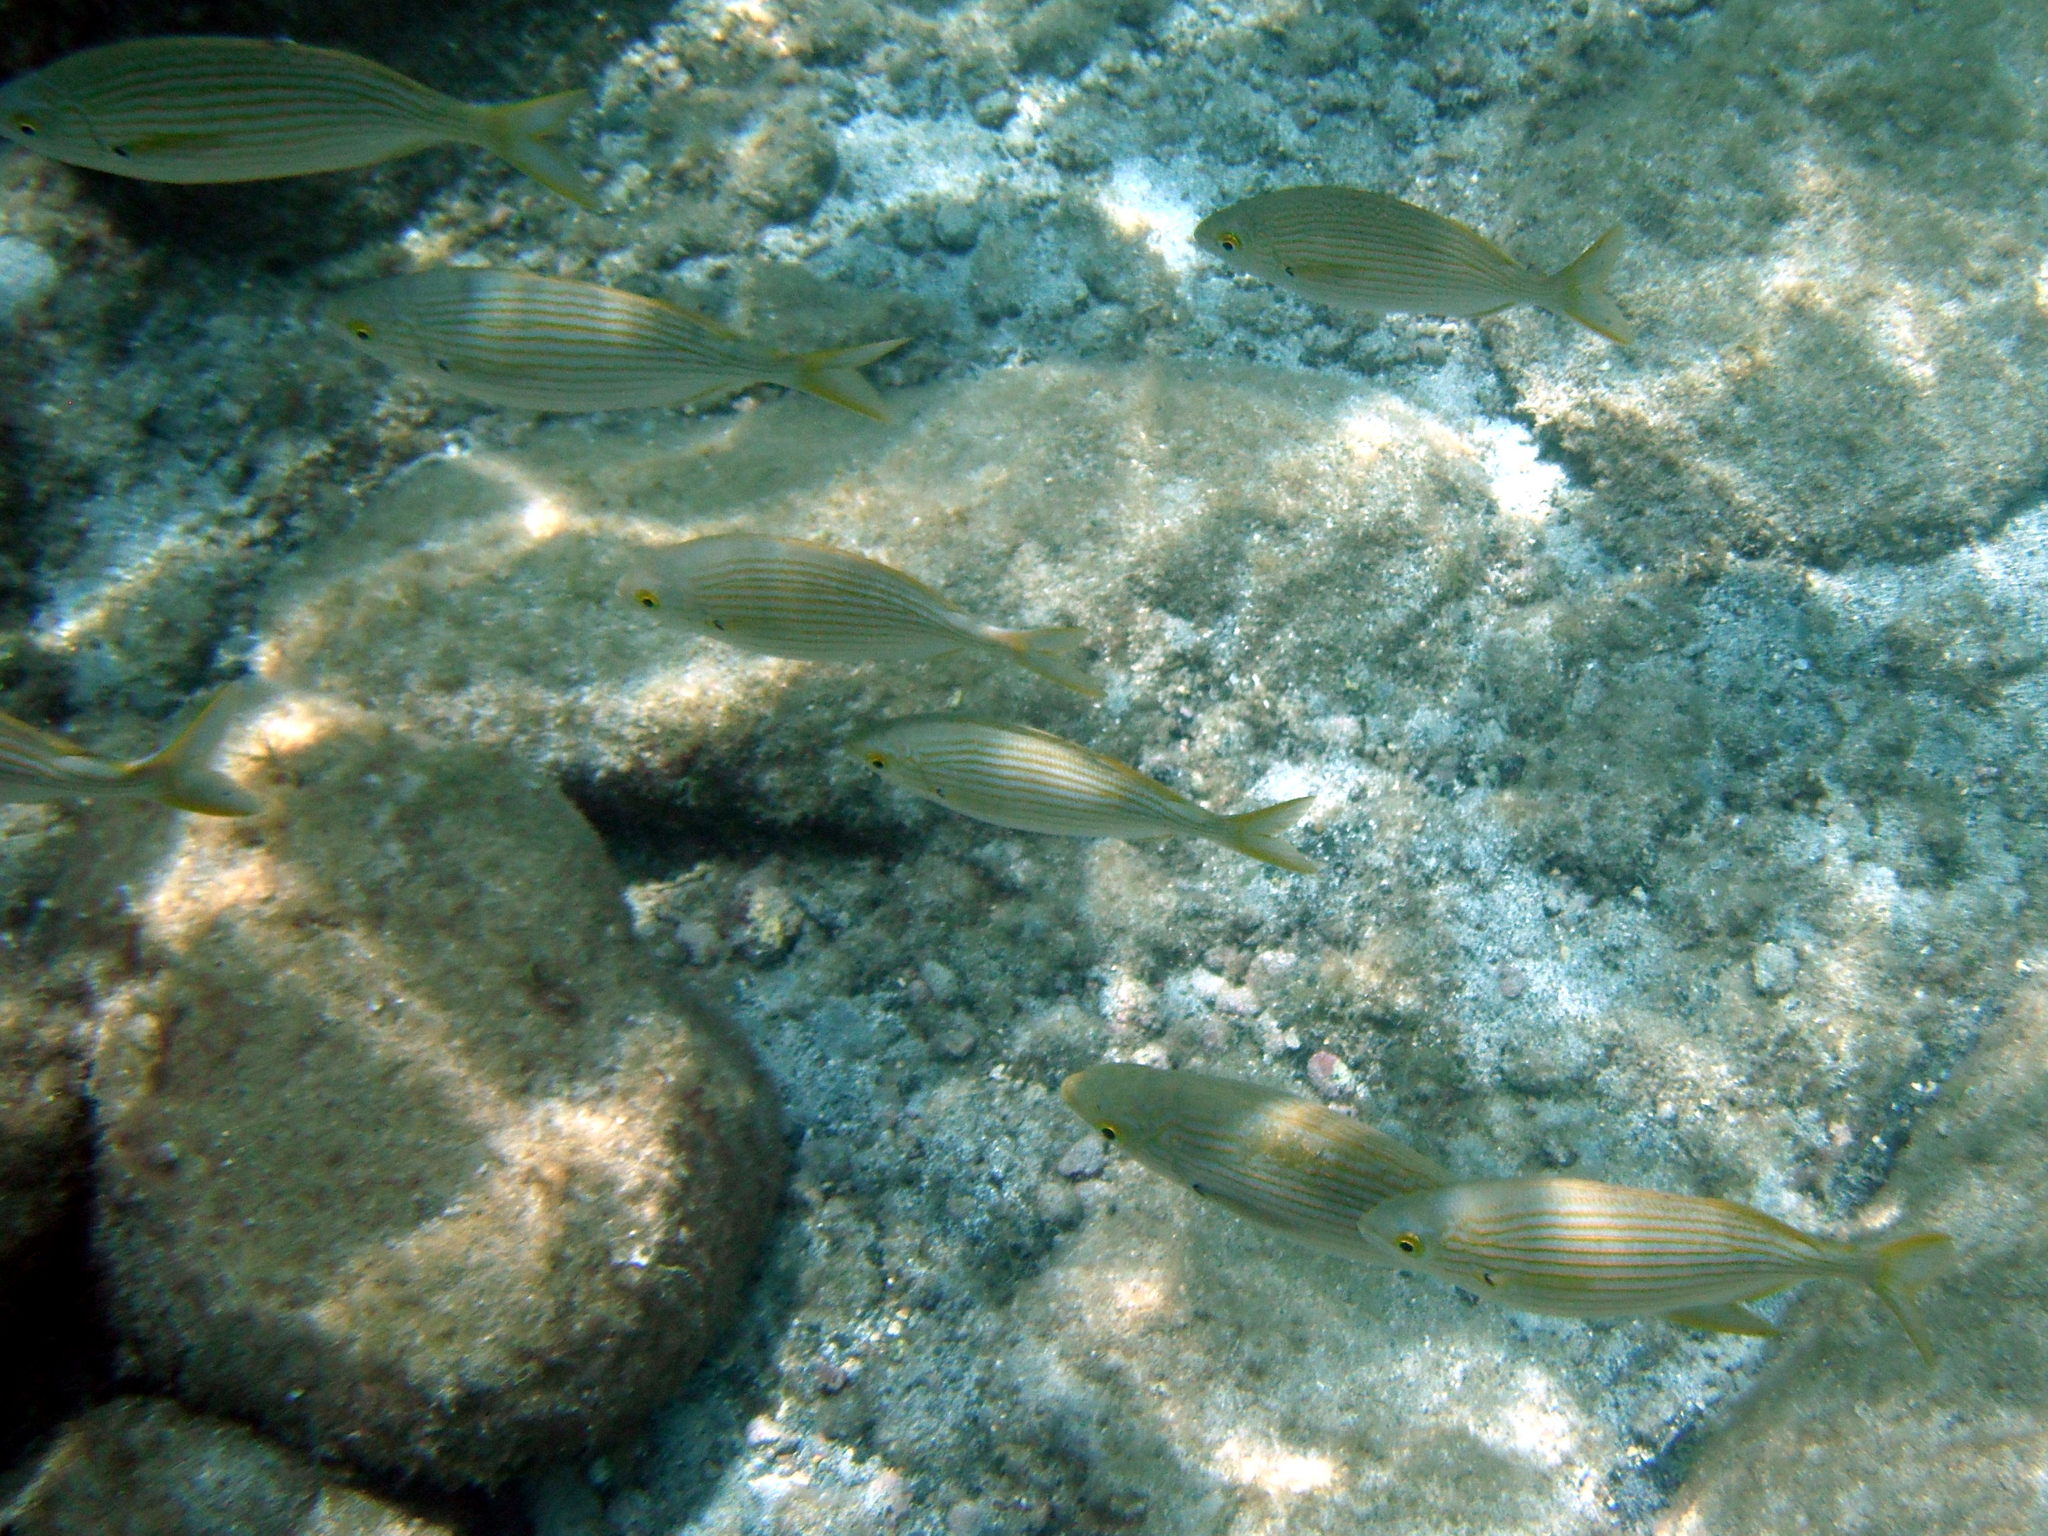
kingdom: Animalia
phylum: Chordata
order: Perciformes
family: Sparidae
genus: Sarpa
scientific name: Sarpa salpa
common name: Salema
